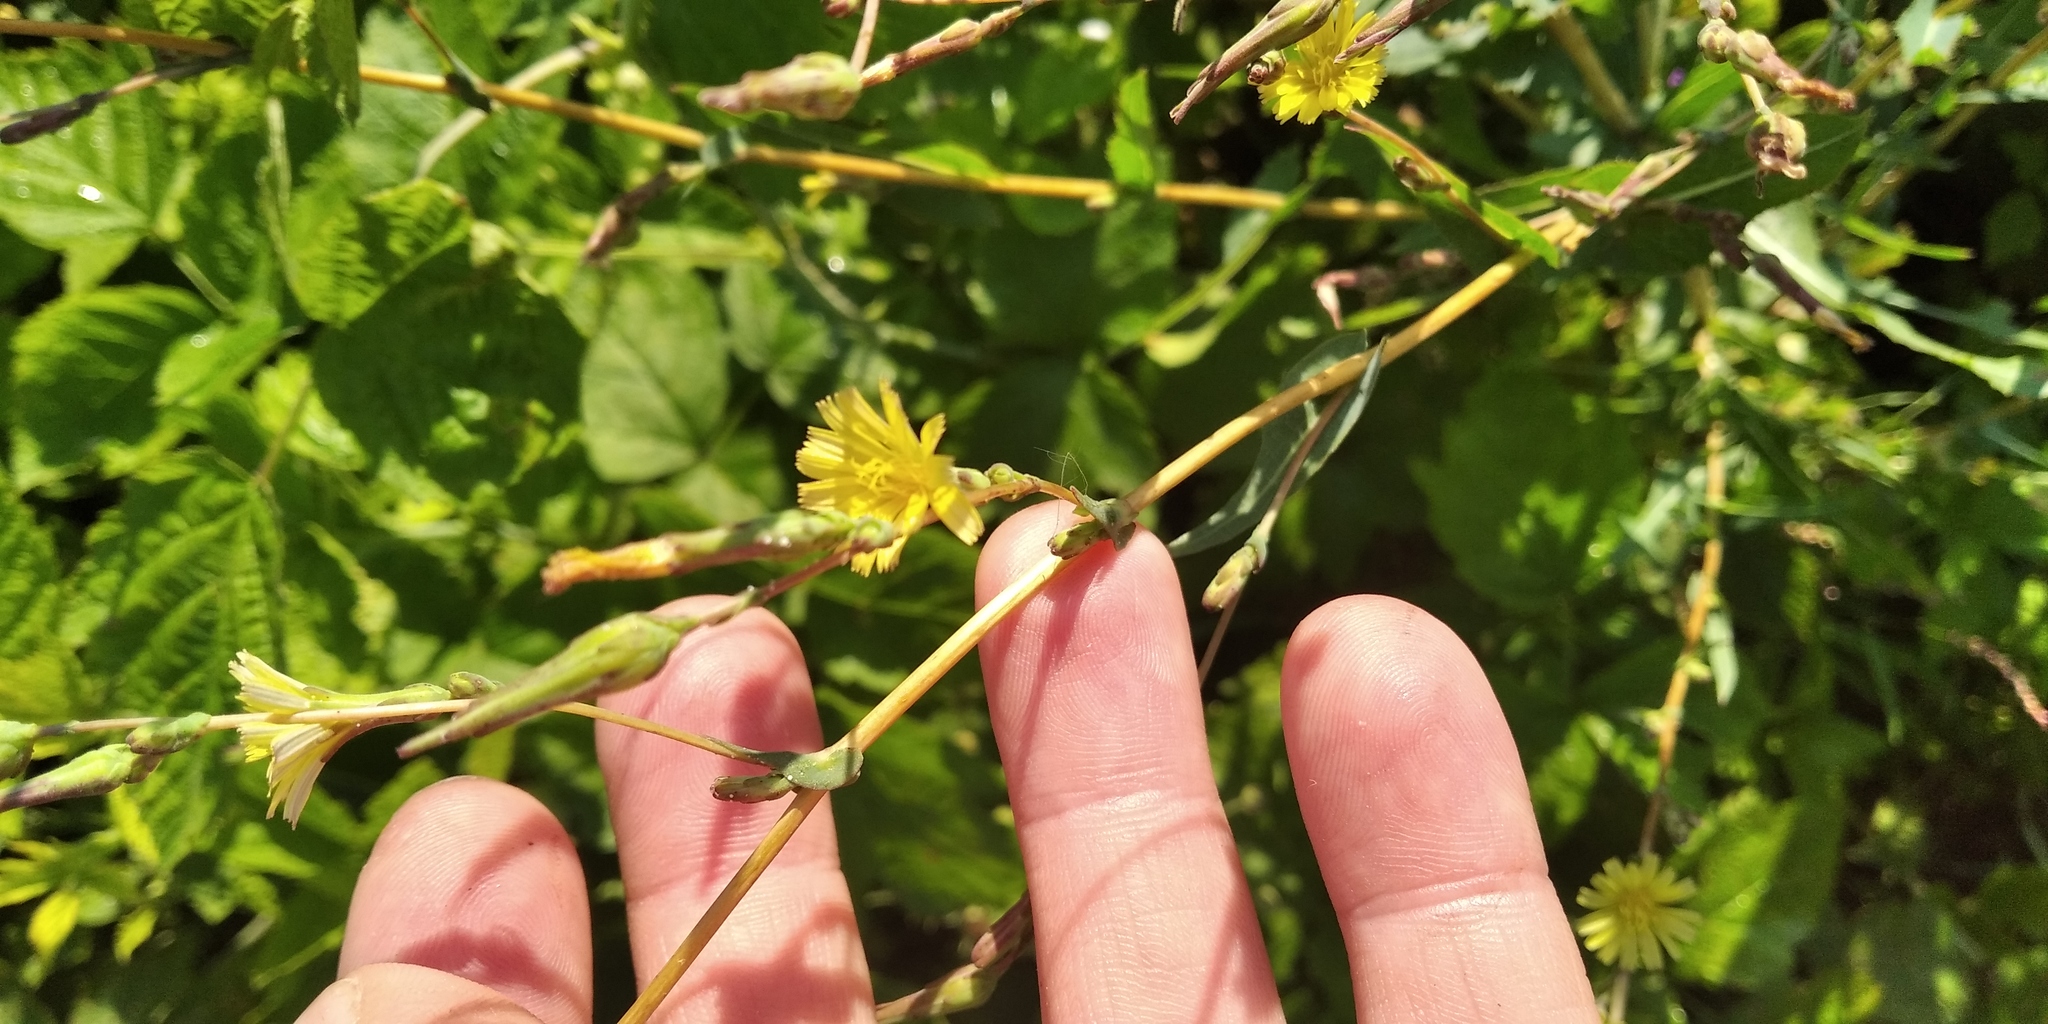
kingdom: Plantae
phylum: Tracheophyta
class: Magnoliopsida
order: Asterales
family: Asteraceae
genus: Lactuca
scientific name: Lactuca serriola
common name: Prickly lettuce
